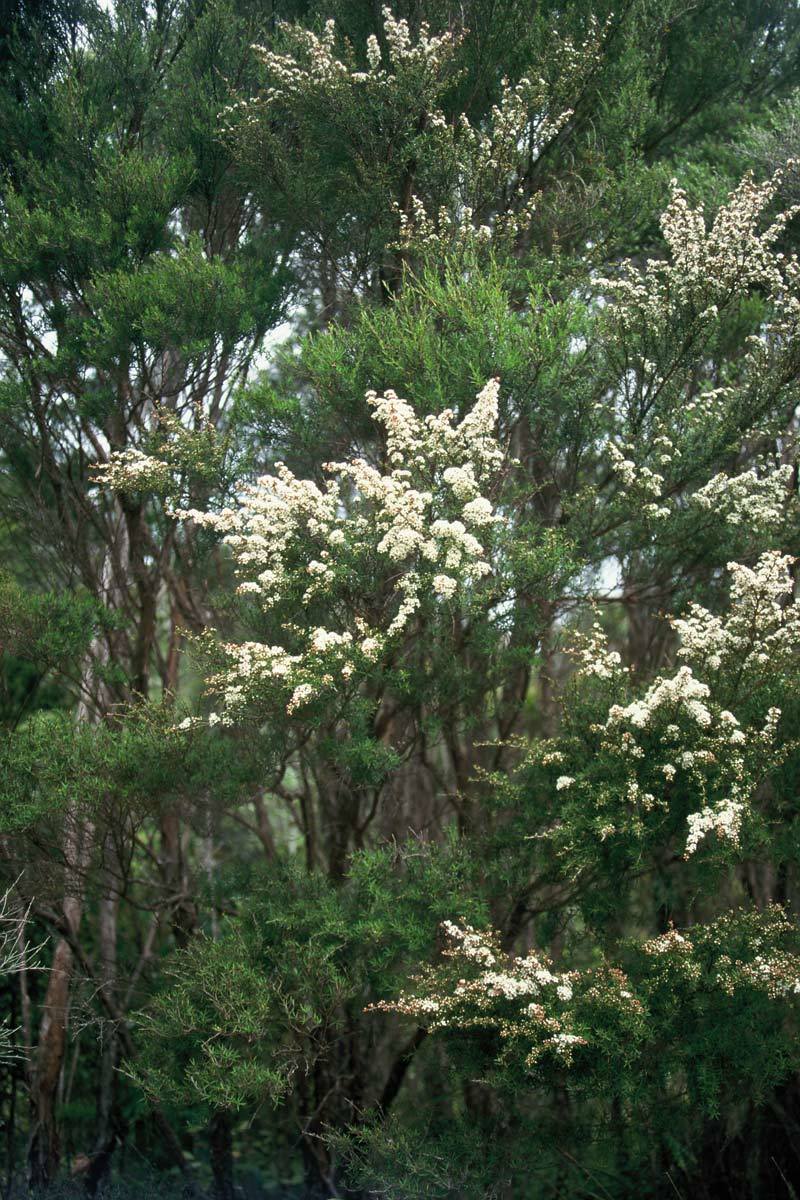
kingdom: Plantae
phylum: Tracheophyta
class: Magnoliopsida
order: Myrtales
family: Myrtaceae
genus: Kunzea
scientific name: Kunzea ericoides
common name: Burgan
